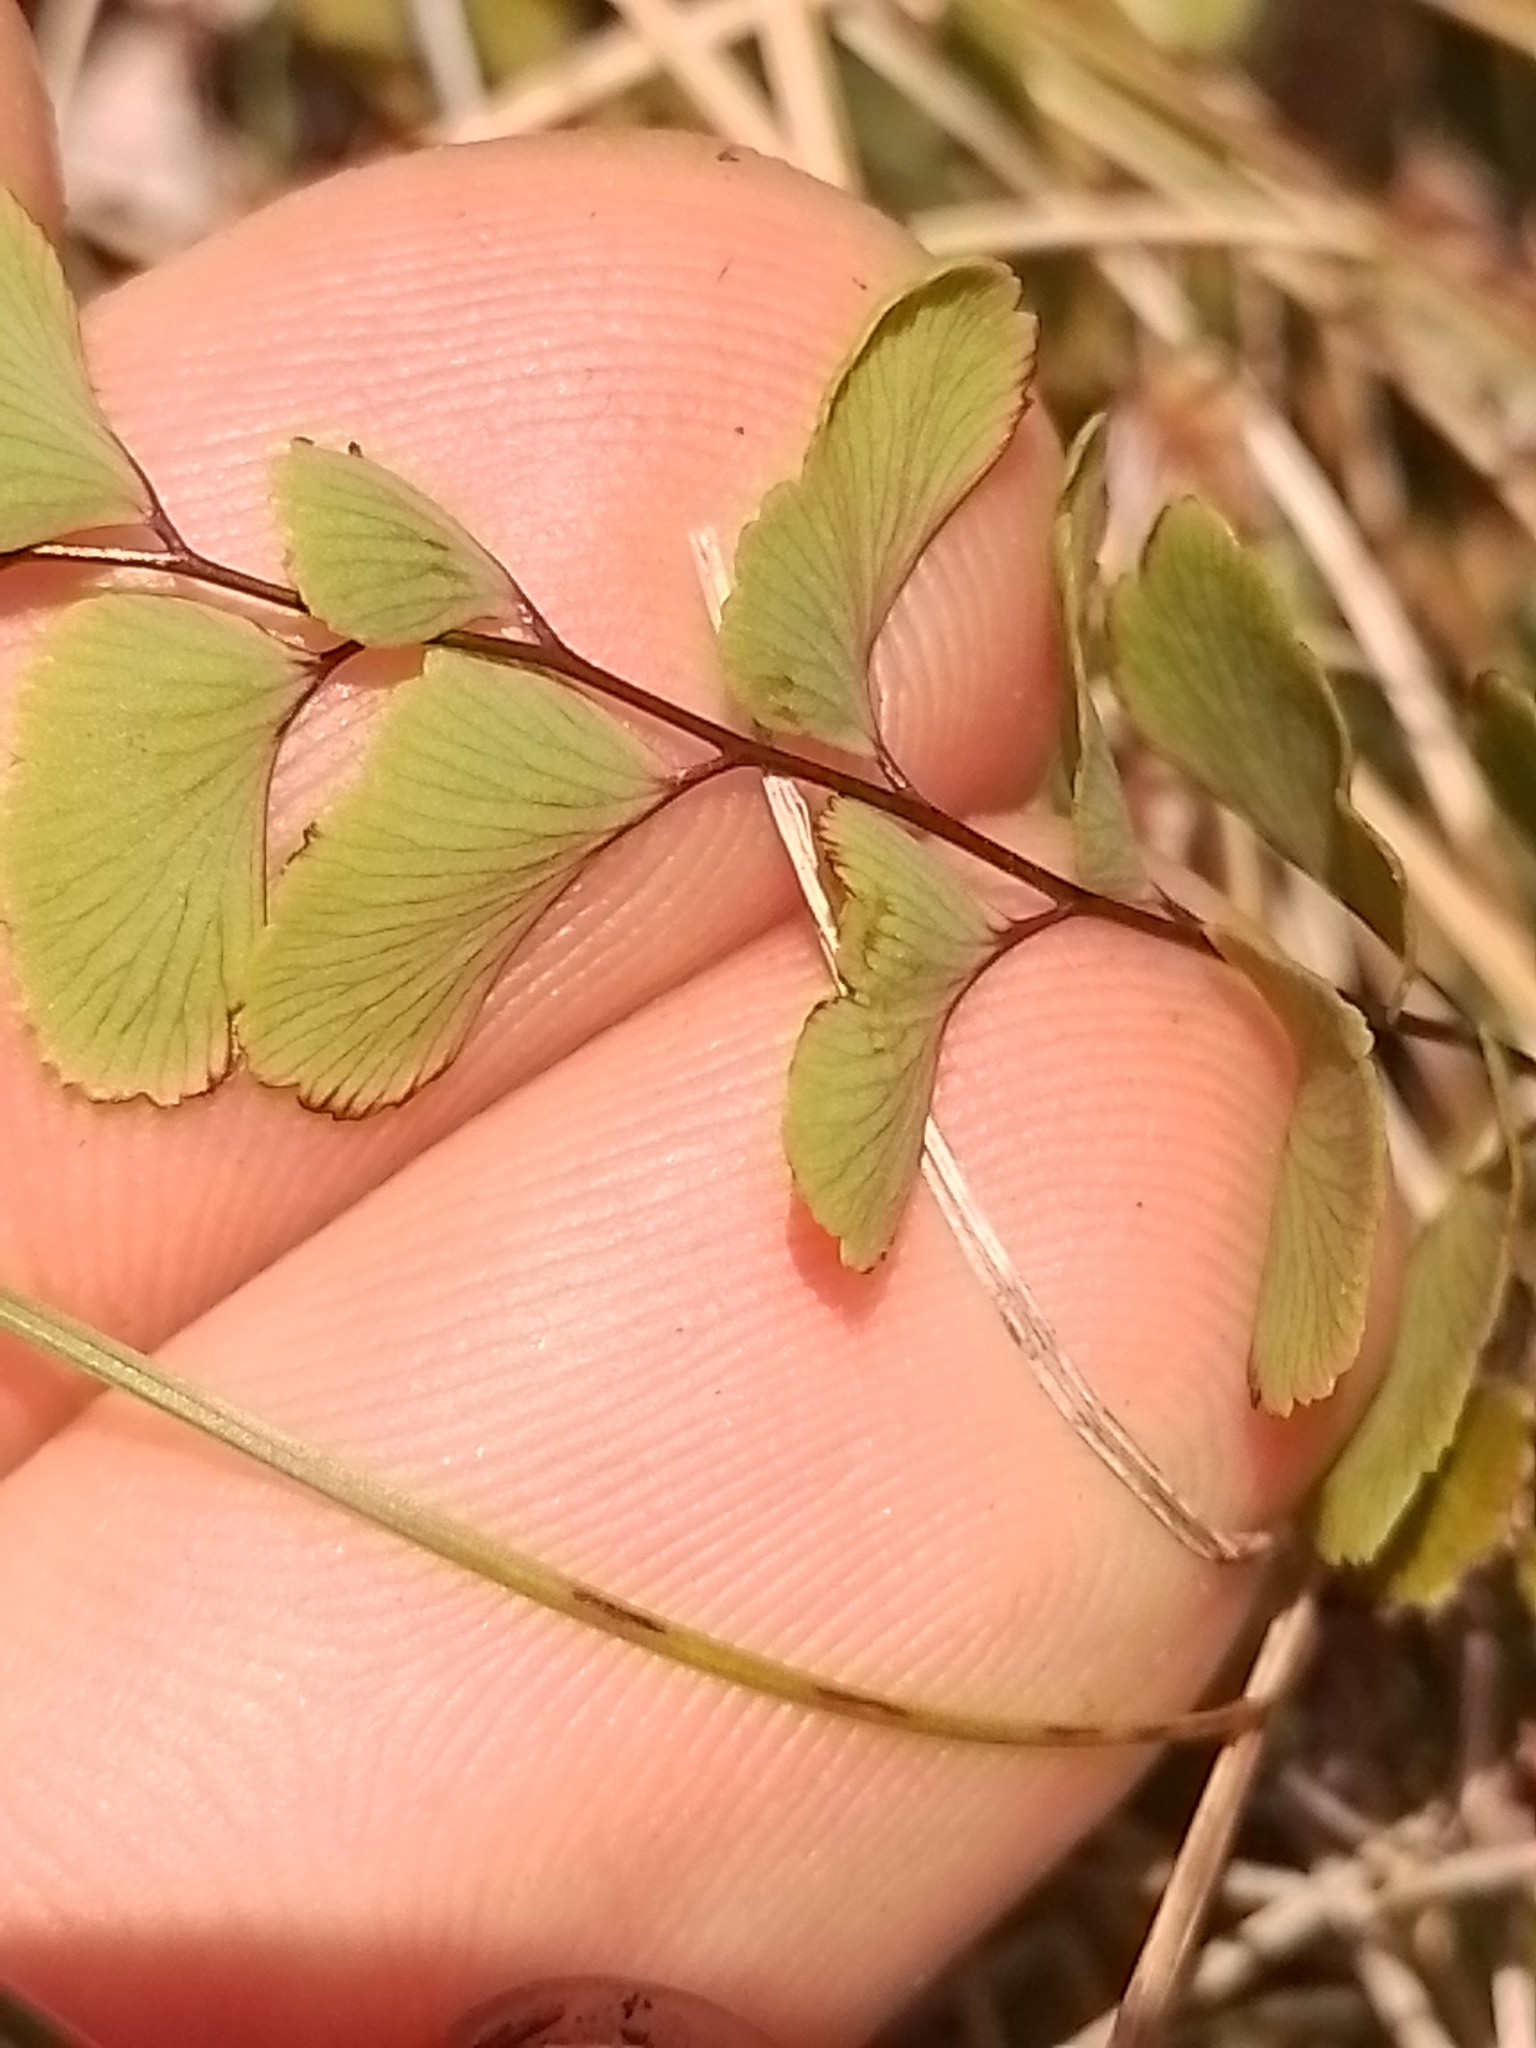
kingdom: Plantae
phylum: Tracheophyta
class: Polypodiopsida
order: Polypodiales
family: Pteridaceae
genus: Adiantum
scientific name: Adiantum cunninghamii
